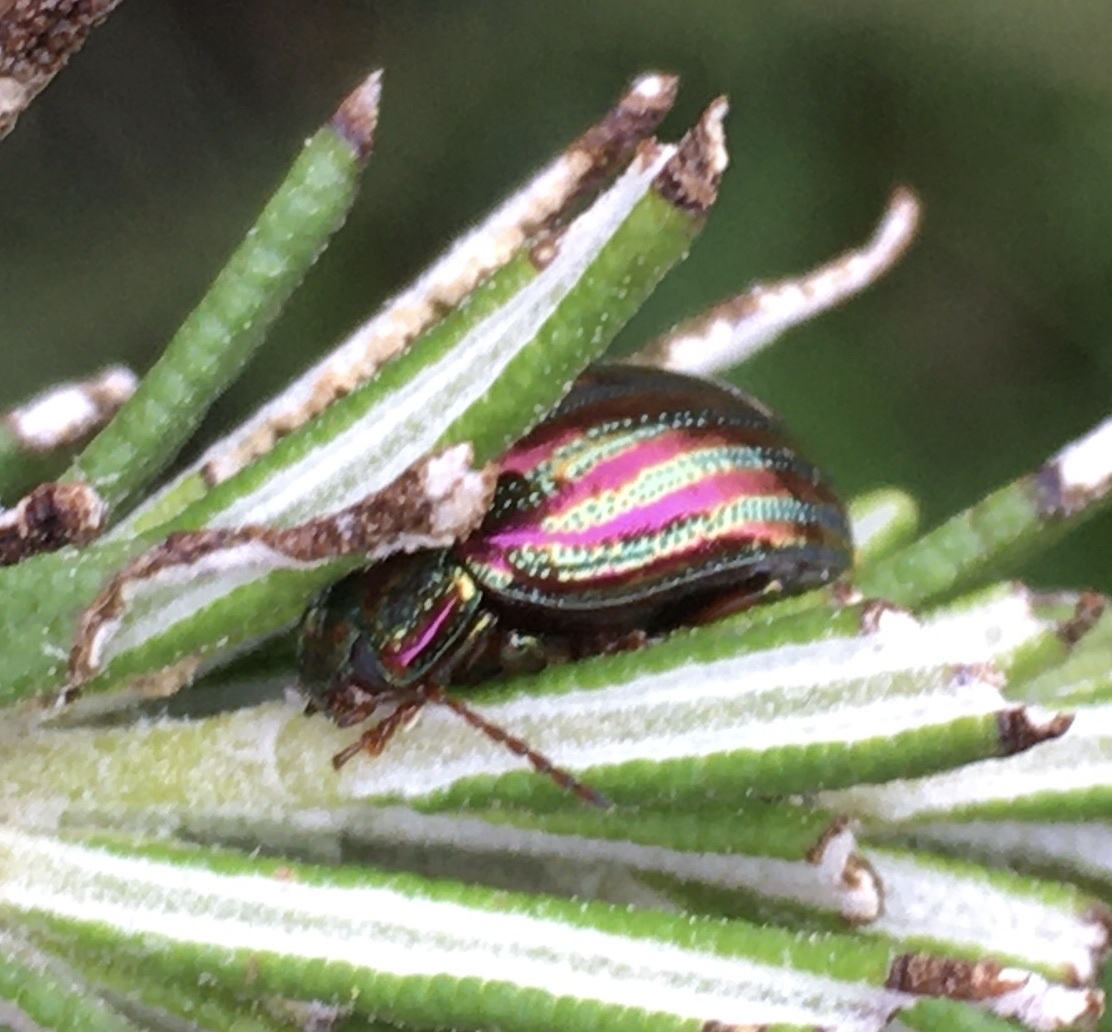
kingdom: Animalia
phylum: Arthropoda
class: Insecta
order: Coleoptera
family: Chrysomelidae
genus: Chrysolina
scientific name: Chrysolina americana
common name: Rosemary beetle
